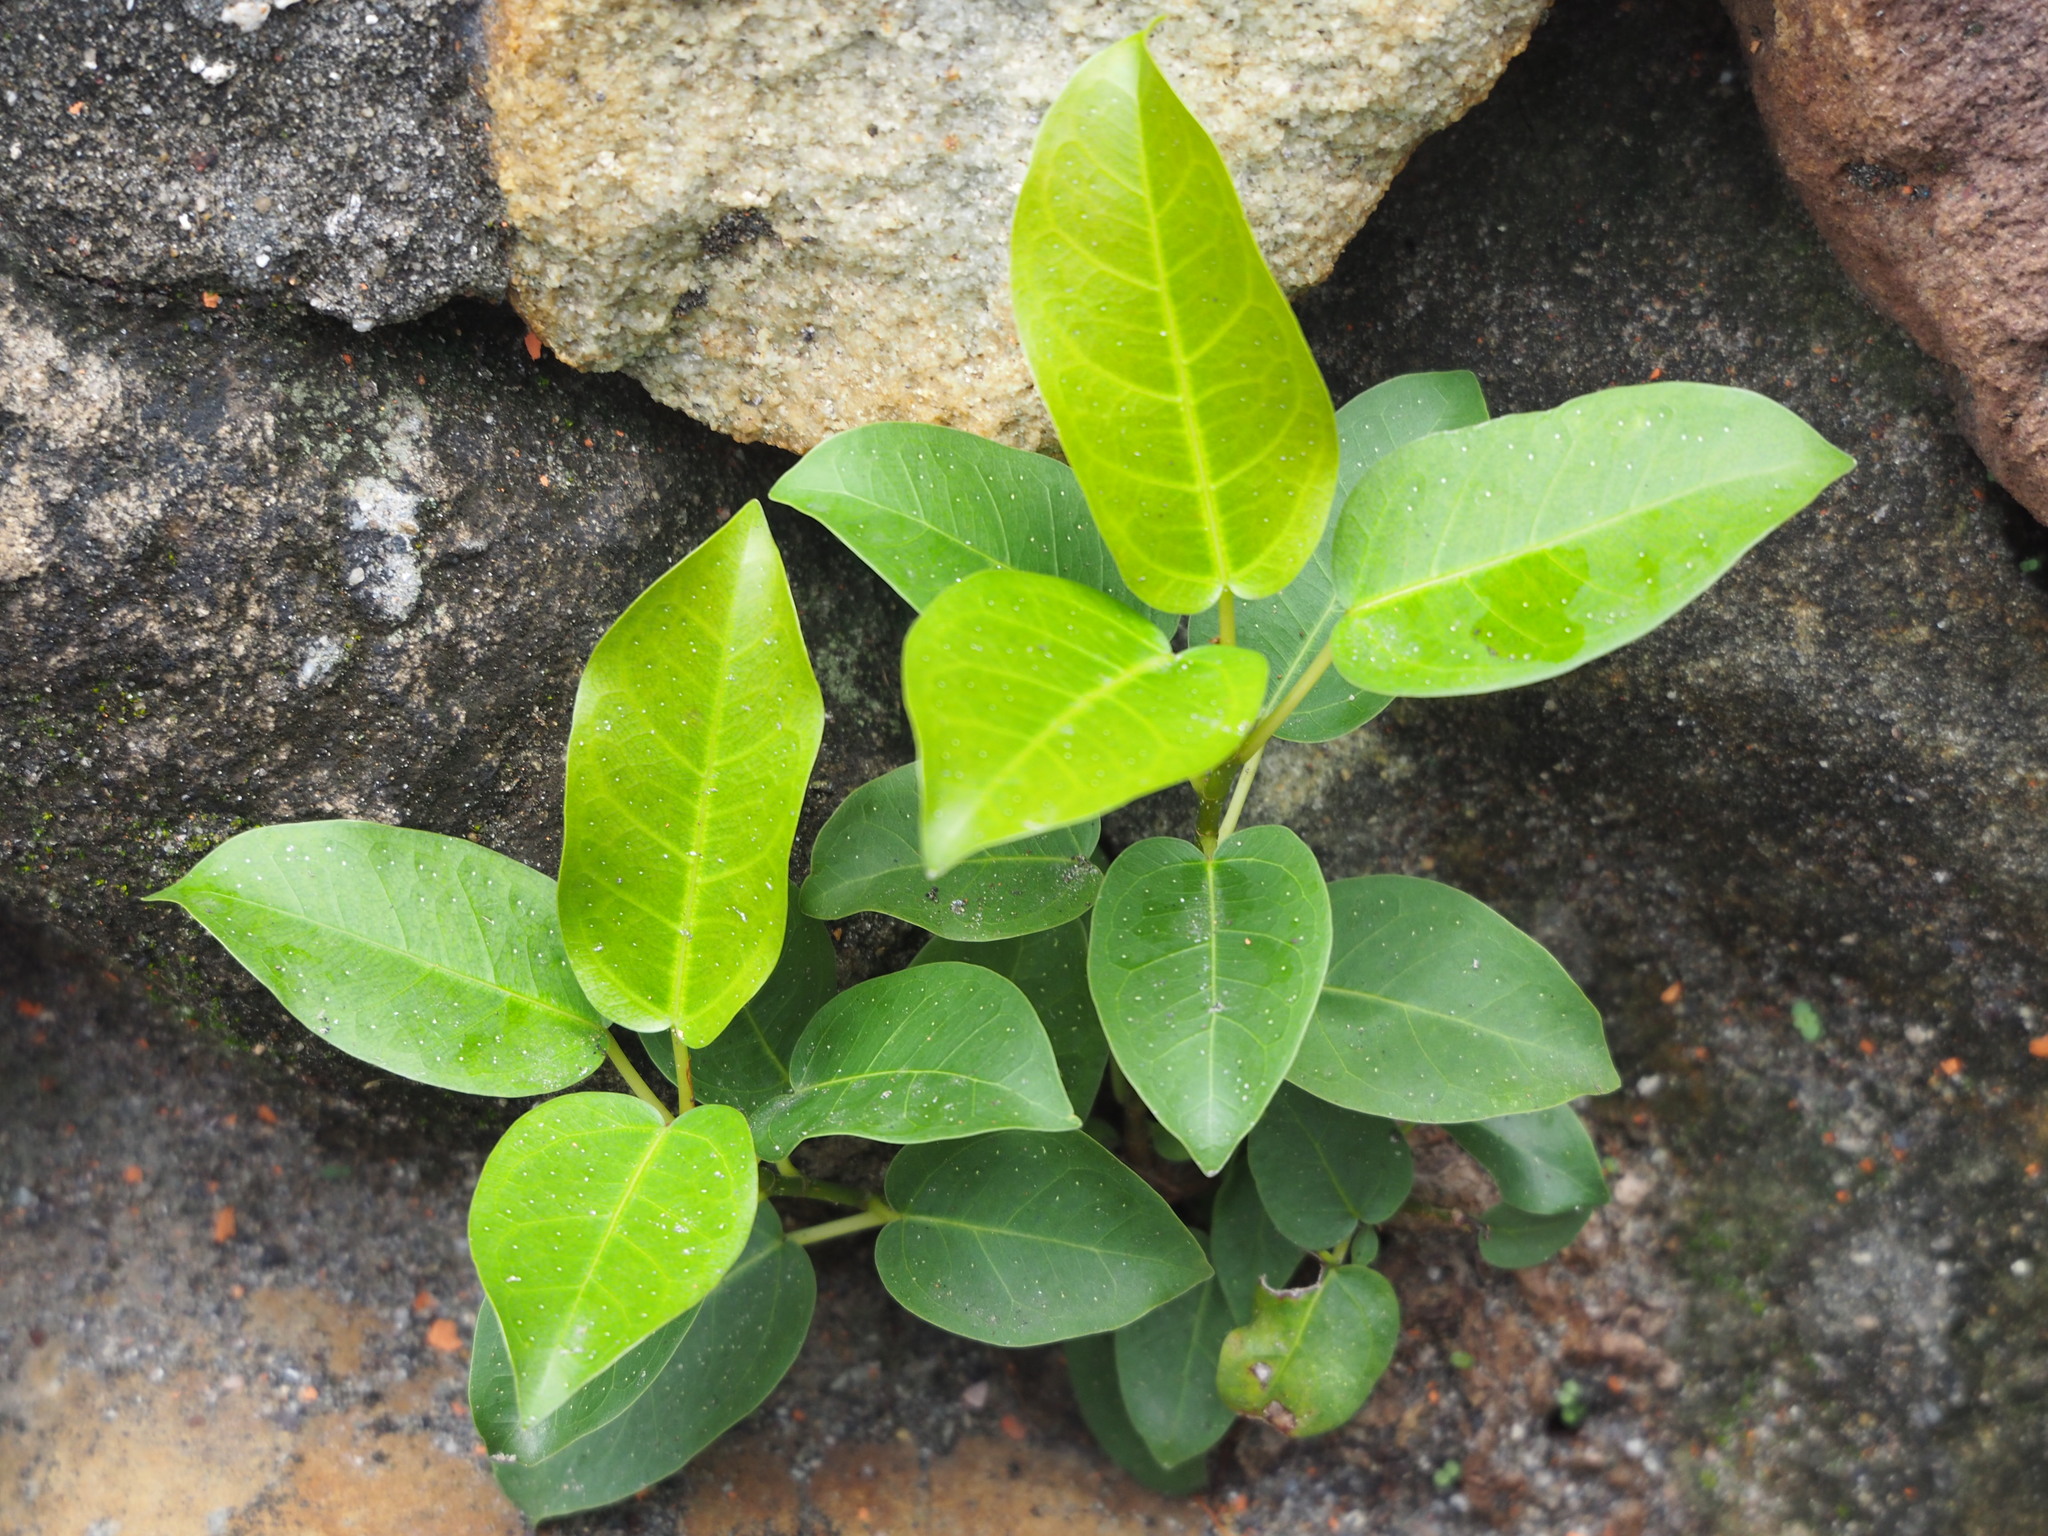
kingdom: Plantae
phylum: Tracheophyta
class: Magnoliopsida
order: Rosales
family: Moraceae
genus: Ficus
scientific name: Ficus subpisocarpa
